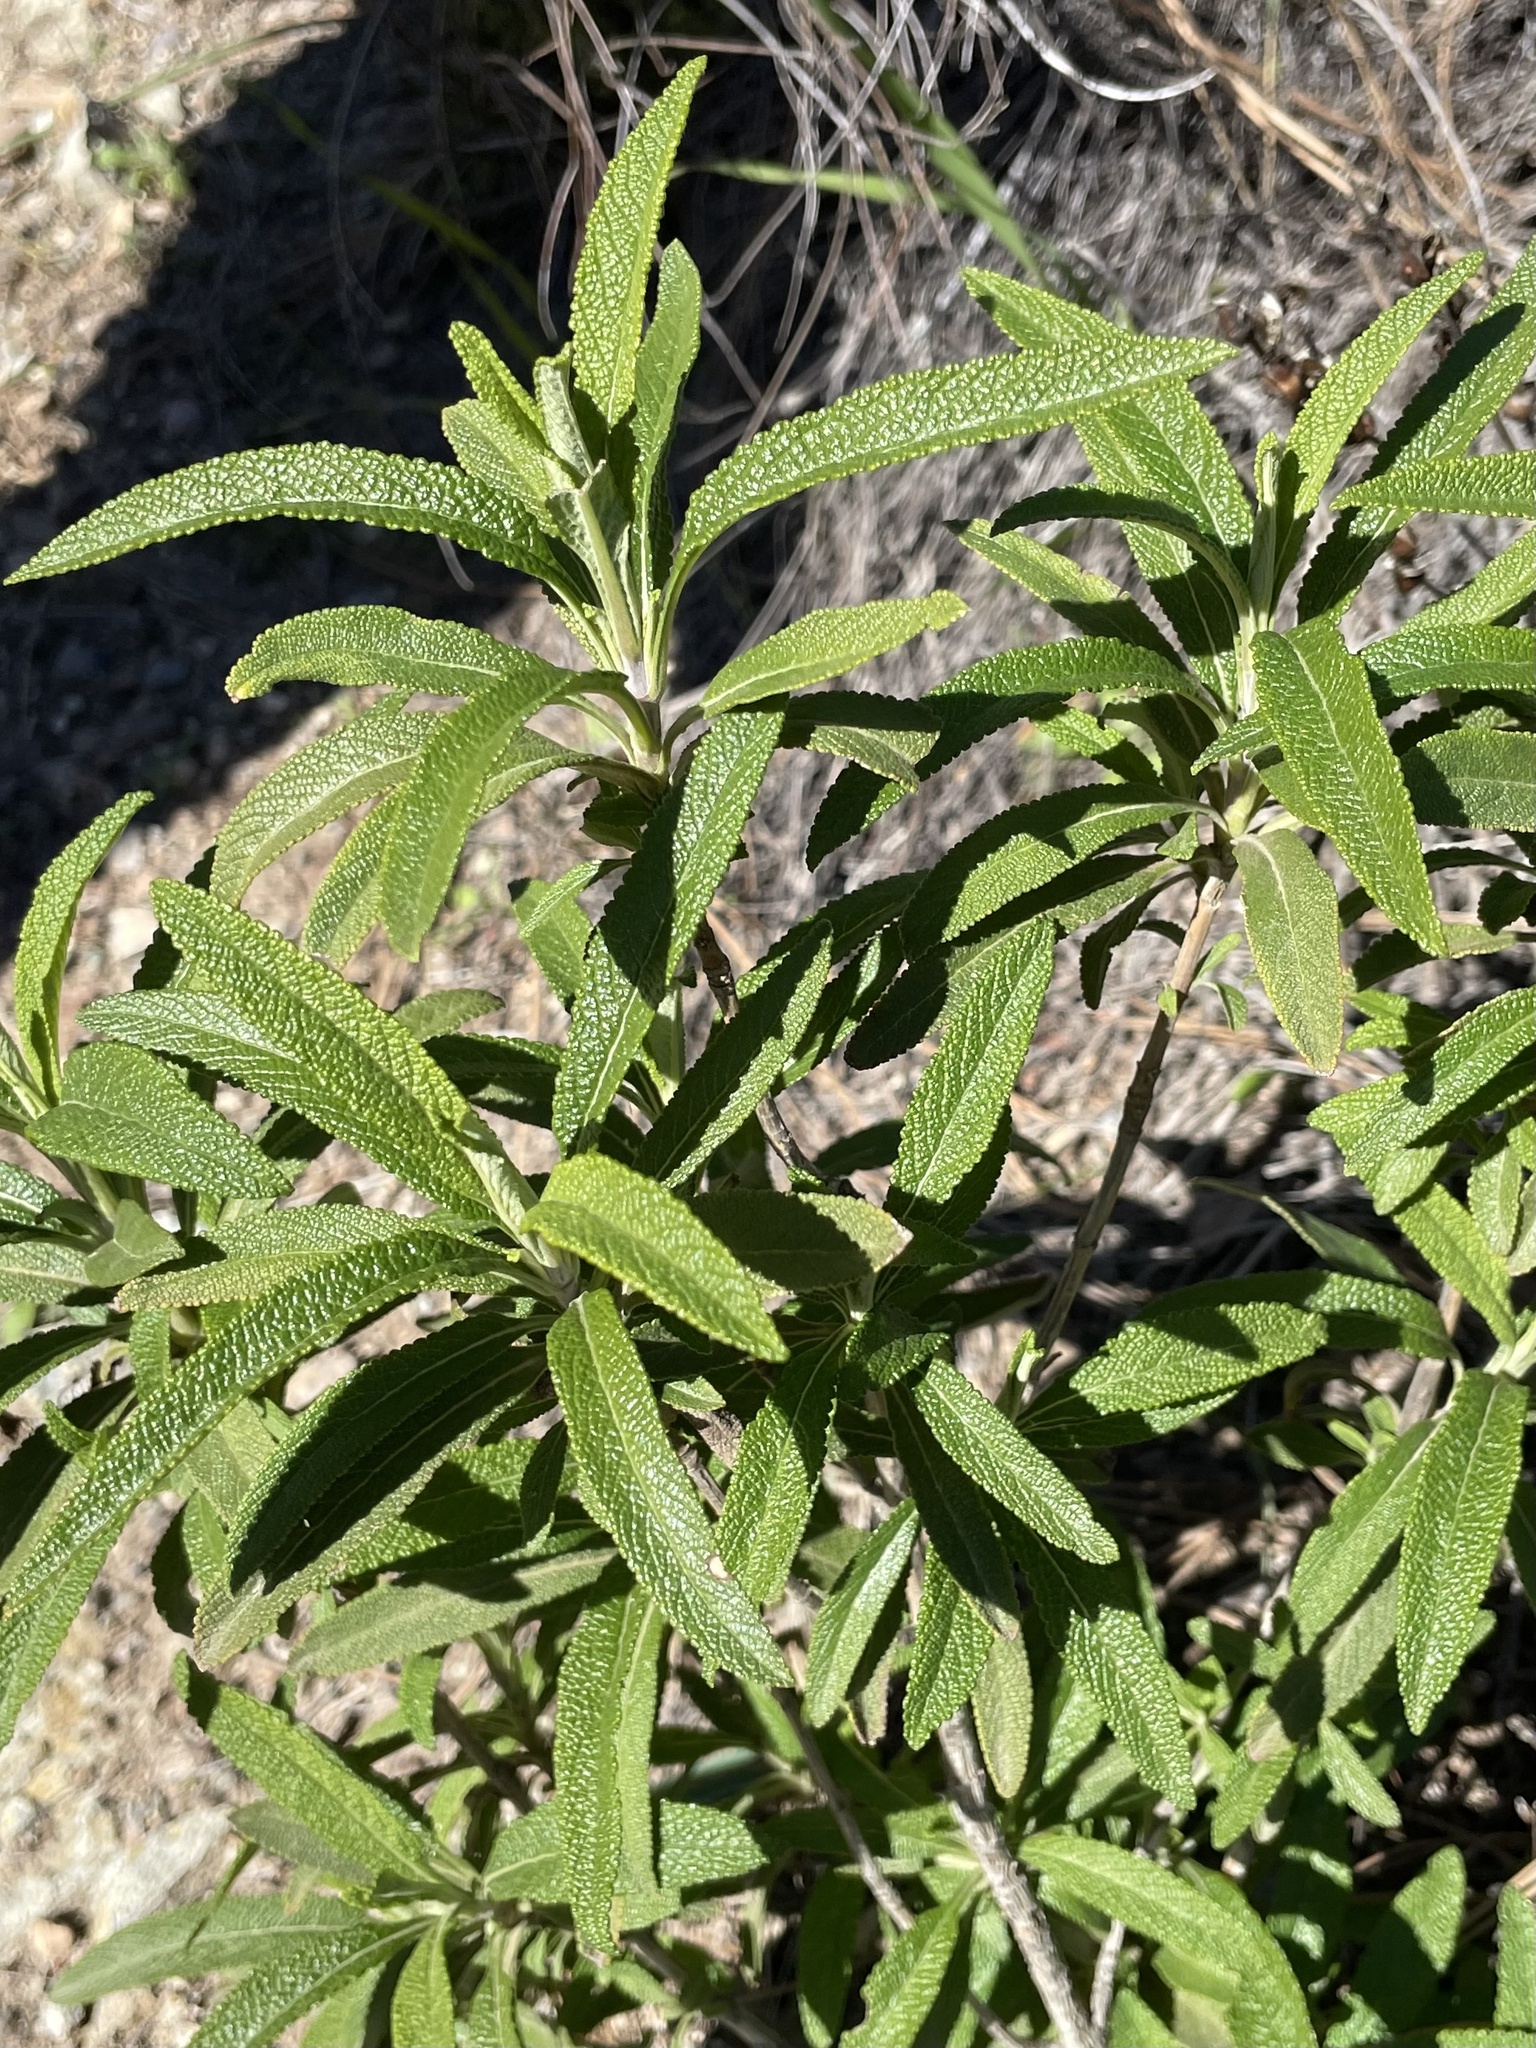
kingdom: Plantae
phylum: Tracheophyta
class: Magnoliopsida
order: Lamiales
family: Lamiaceae
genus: Salvia
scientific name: Salvia mellifera
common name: Black sage
